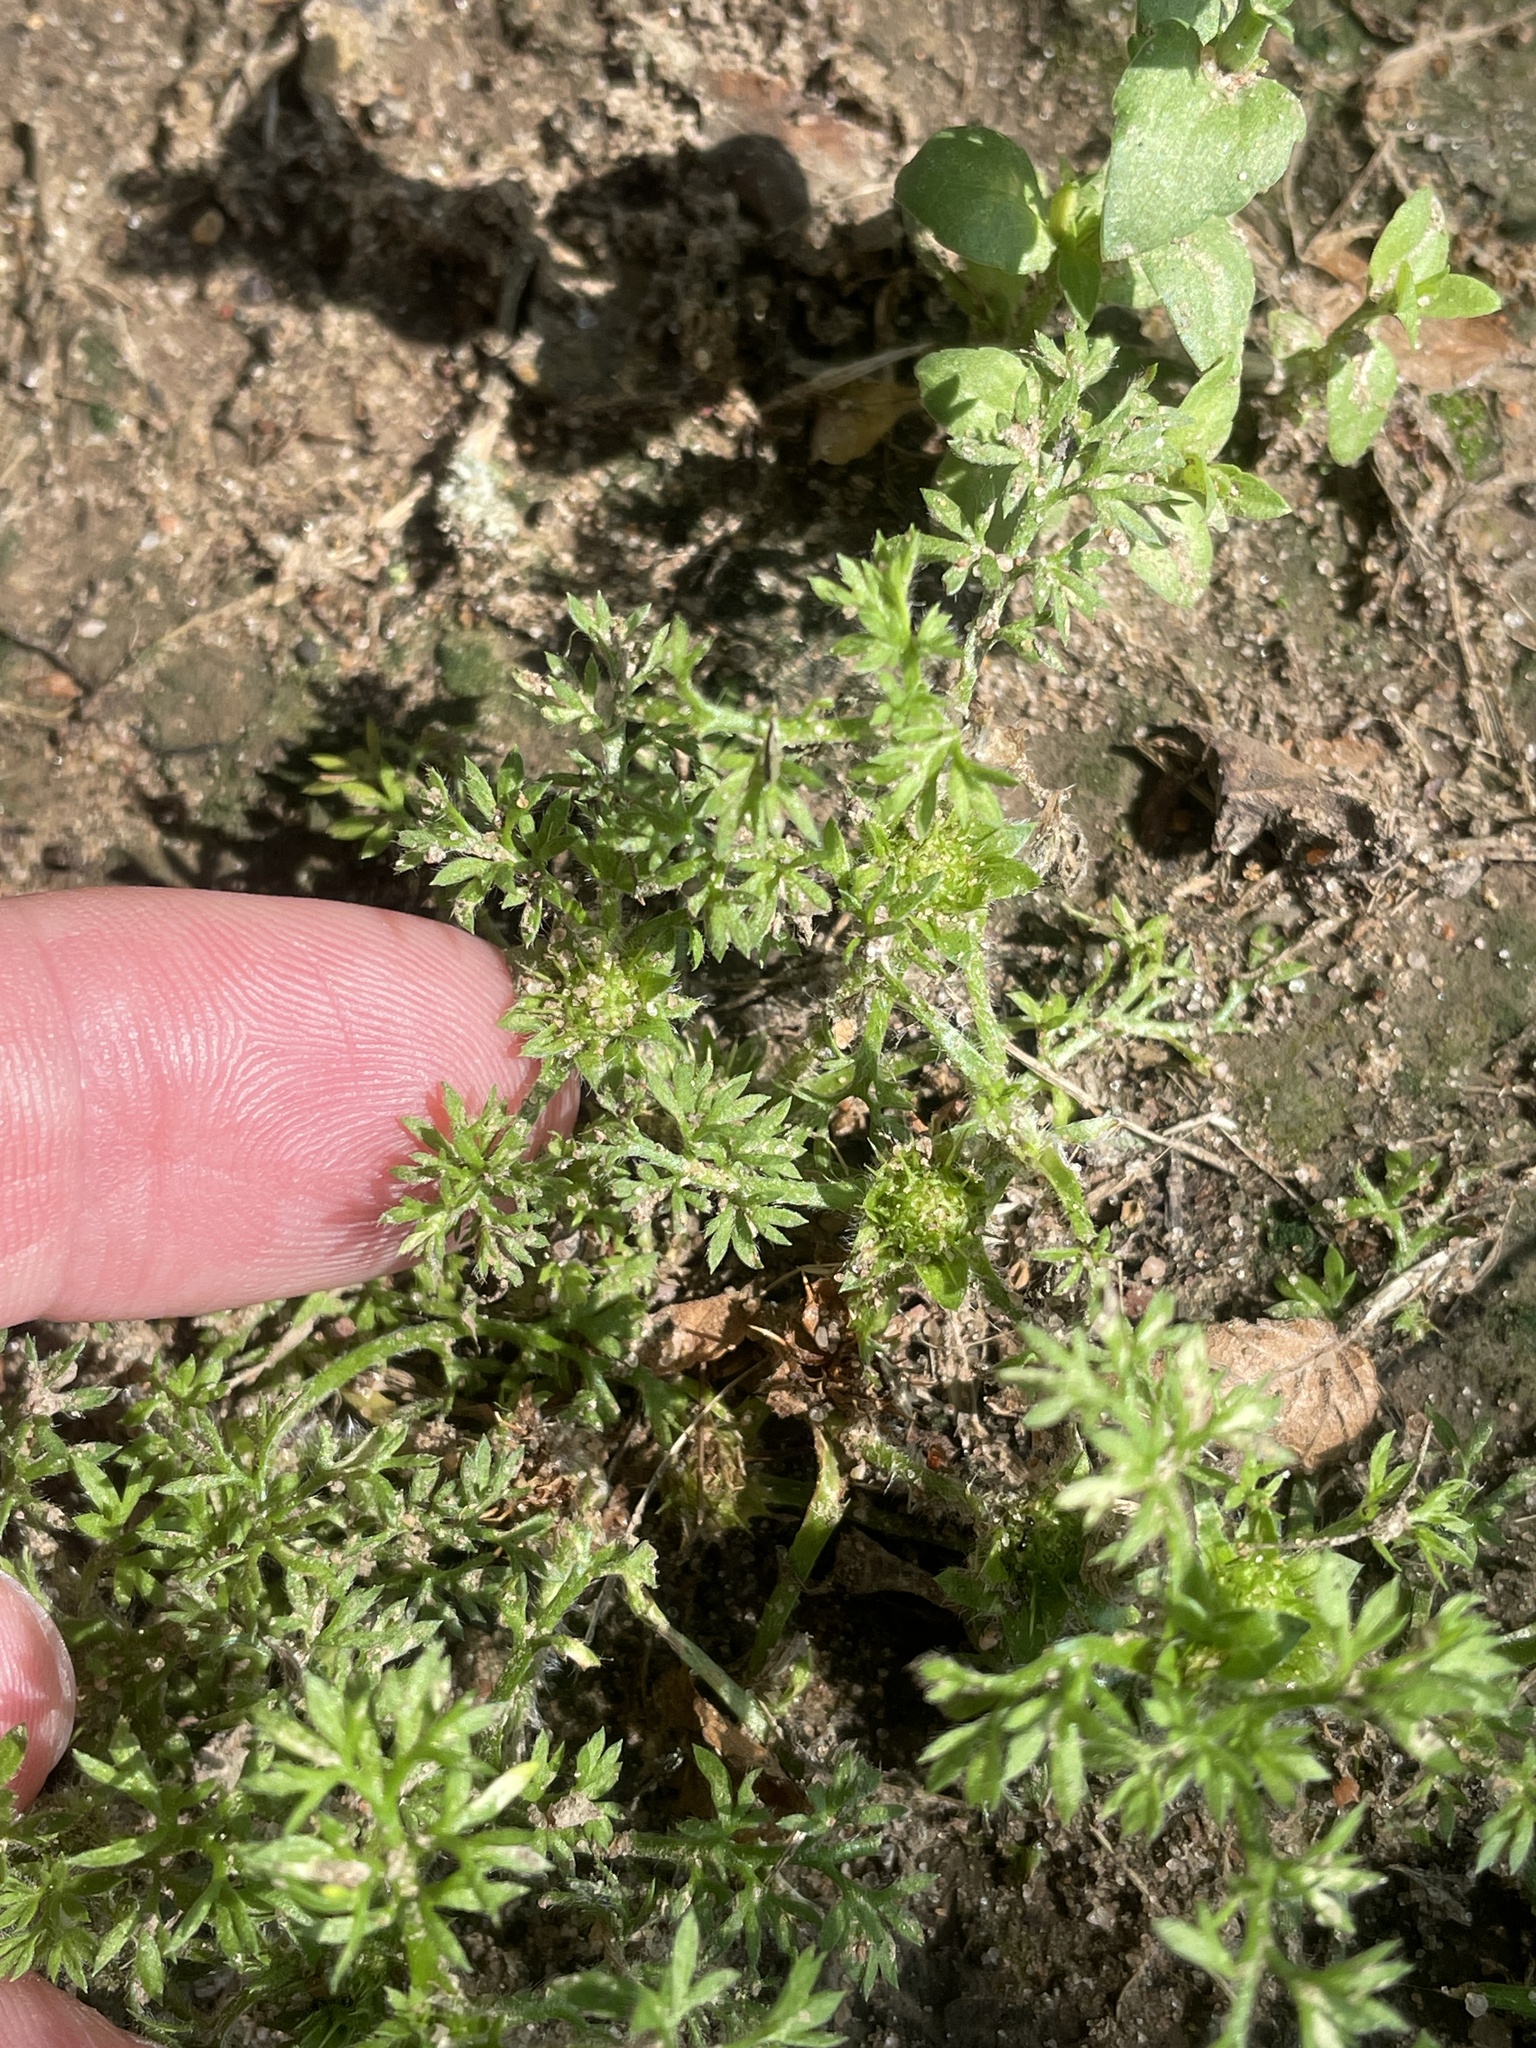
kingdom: Plantae
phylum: Tracheophyta
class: Magnoliopsida
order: Asterales
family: Asteraceae
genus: Soliva
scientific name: Soliva sessilis
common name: Field burrweed
